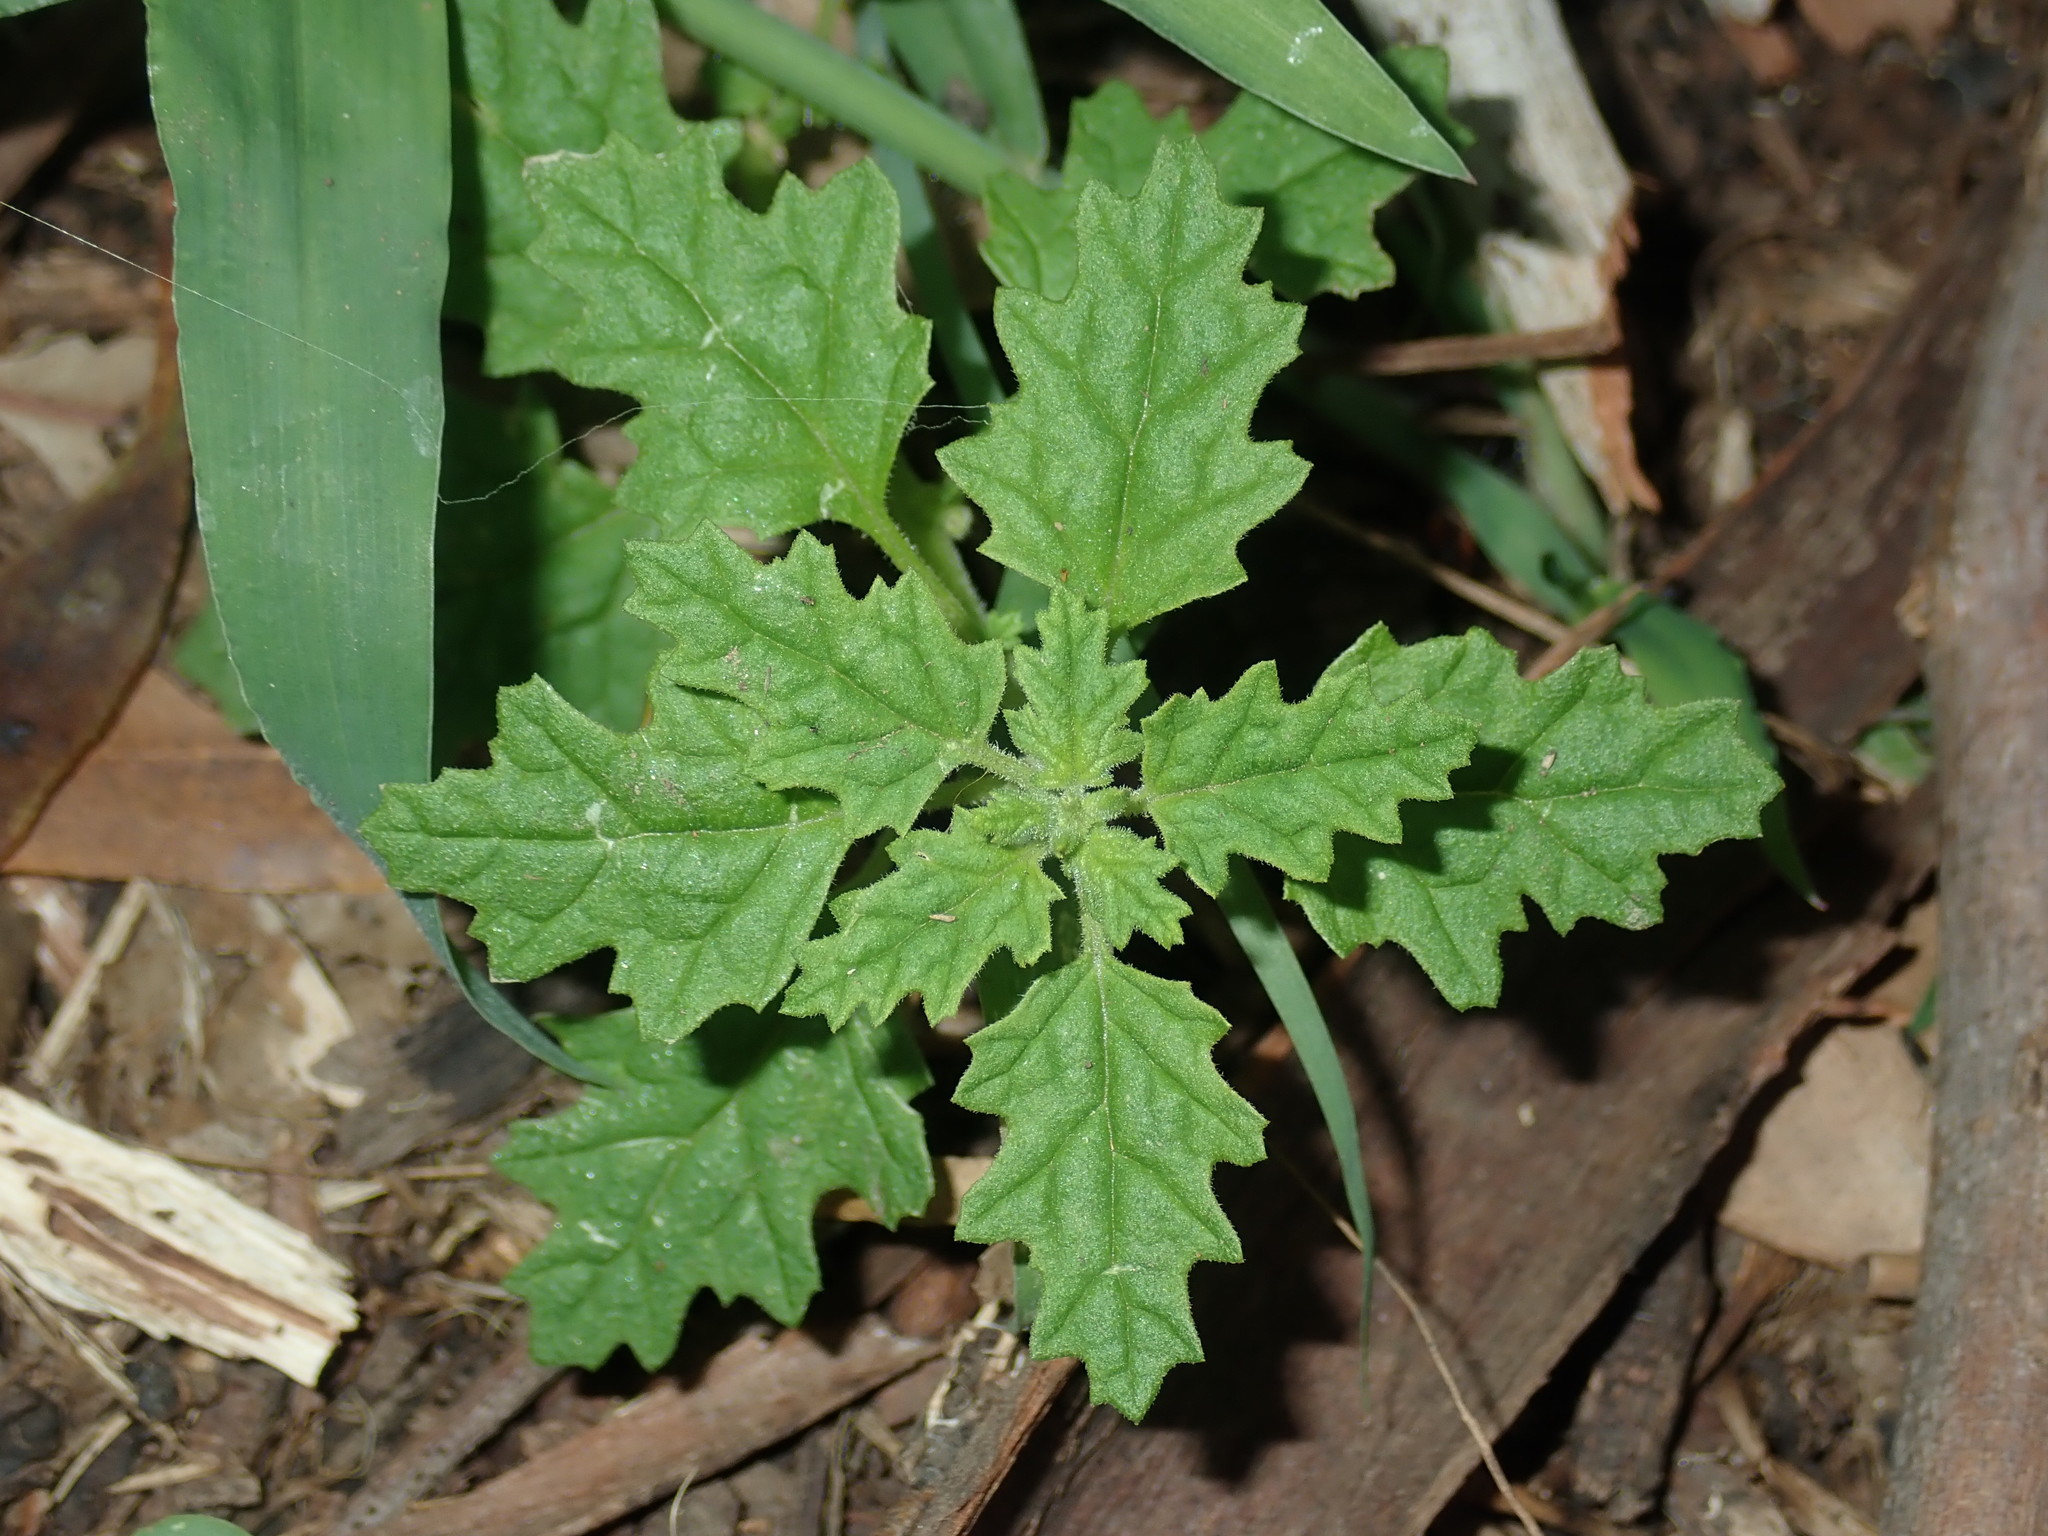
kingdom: Plantae
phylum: Tracheophyta
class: Magnoliopsida
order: Caryophyllales
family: Amaranthaceae
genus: Dysphania
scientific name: Dysphania pumilio
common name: Clammy goosefoot
